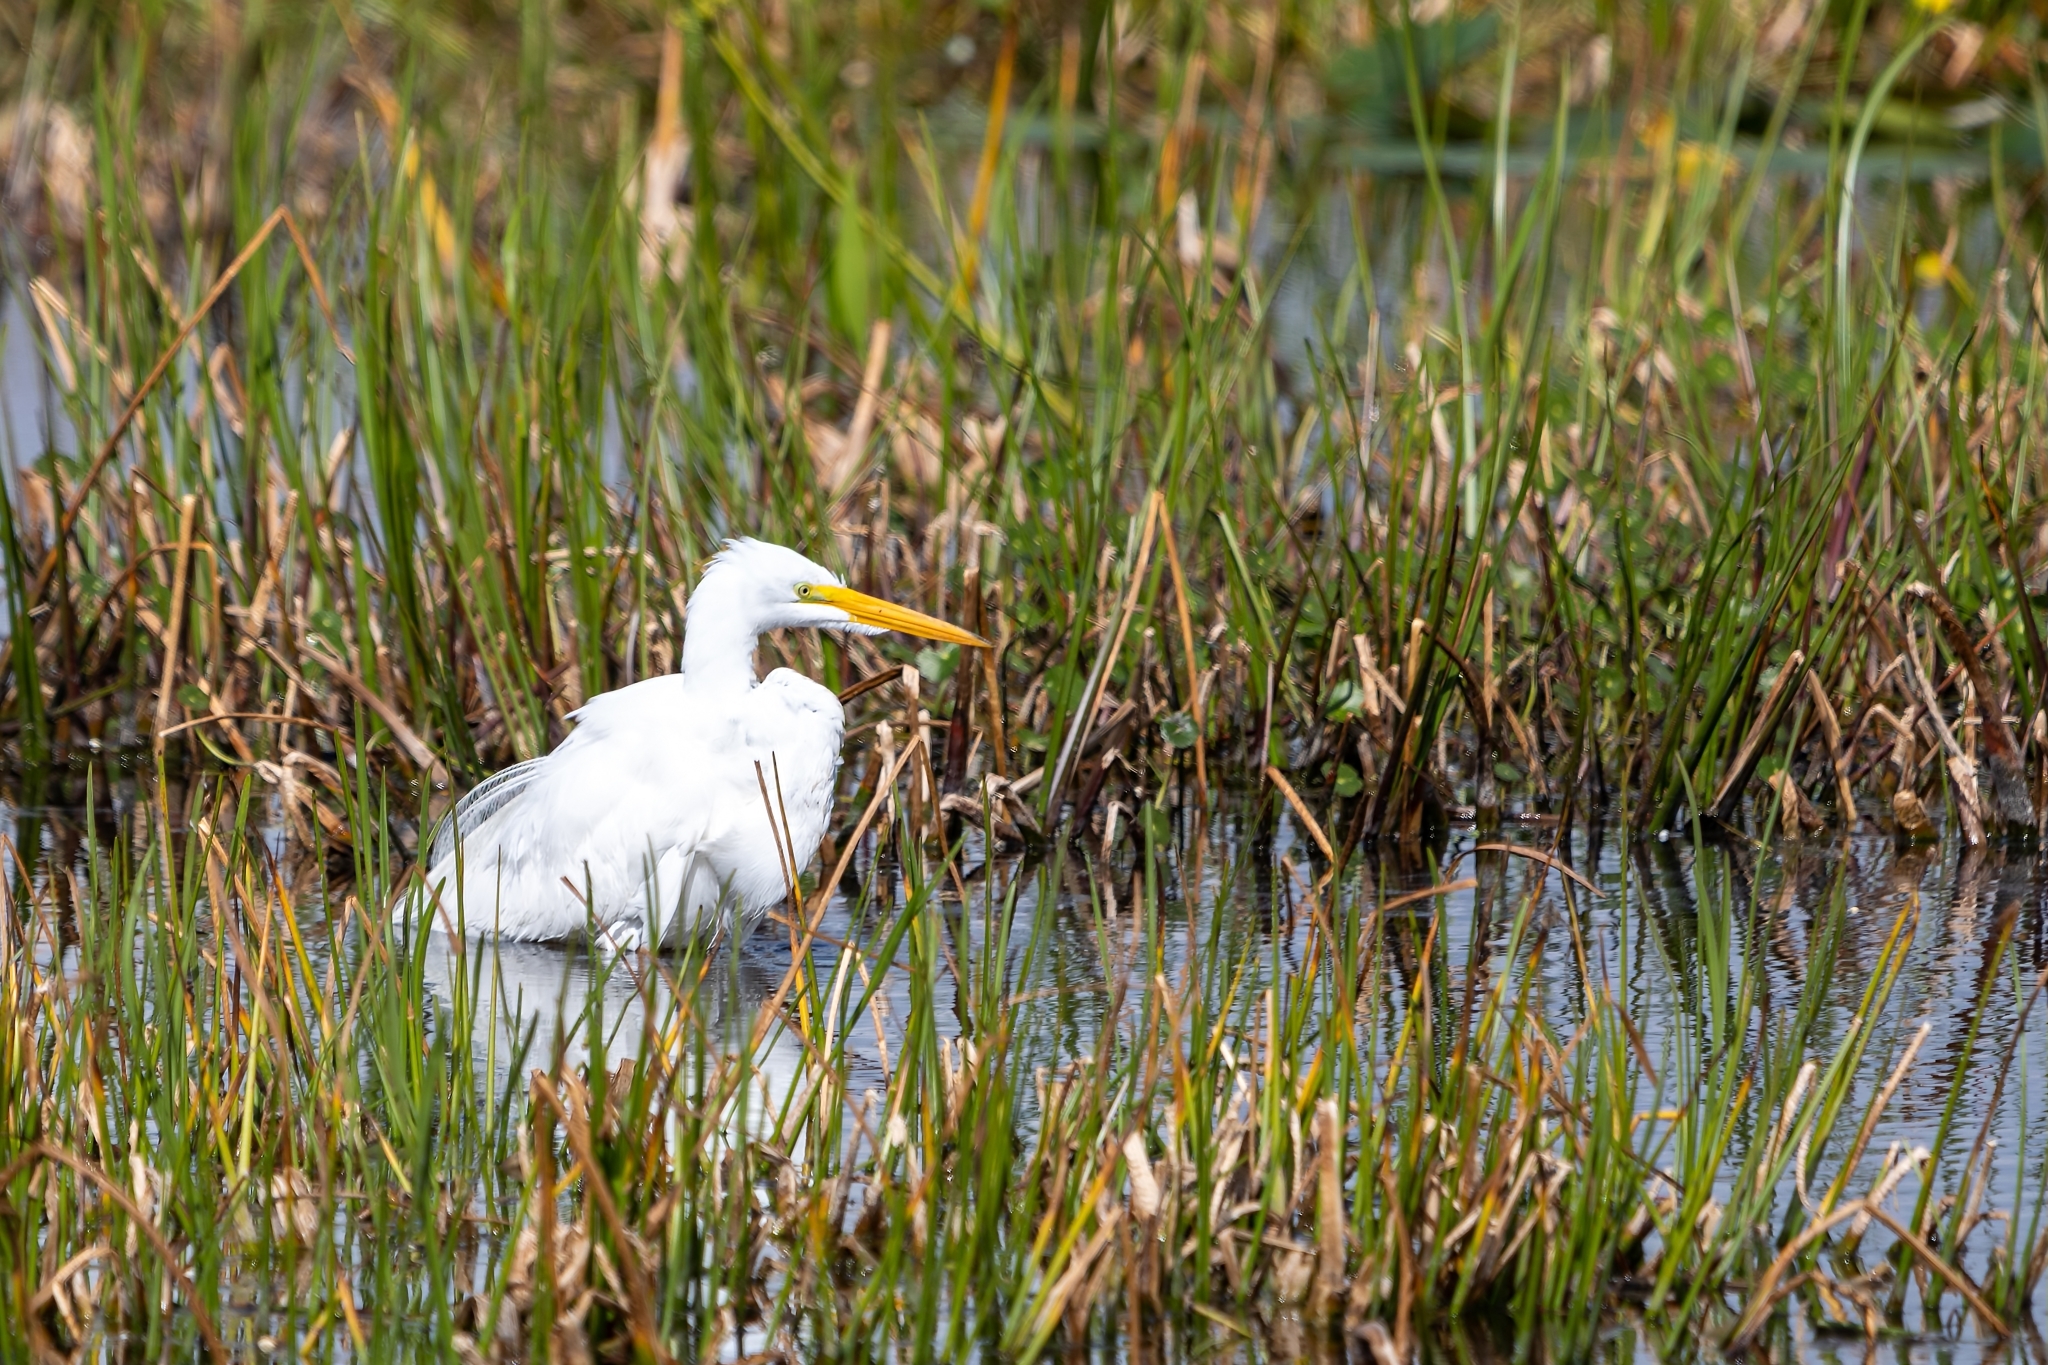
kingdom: Animalia
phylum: Chordata
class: Aves
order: Pelecaniformes
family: Ardeidae
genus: Ardea
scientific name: Ardea alba
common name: Great egret
